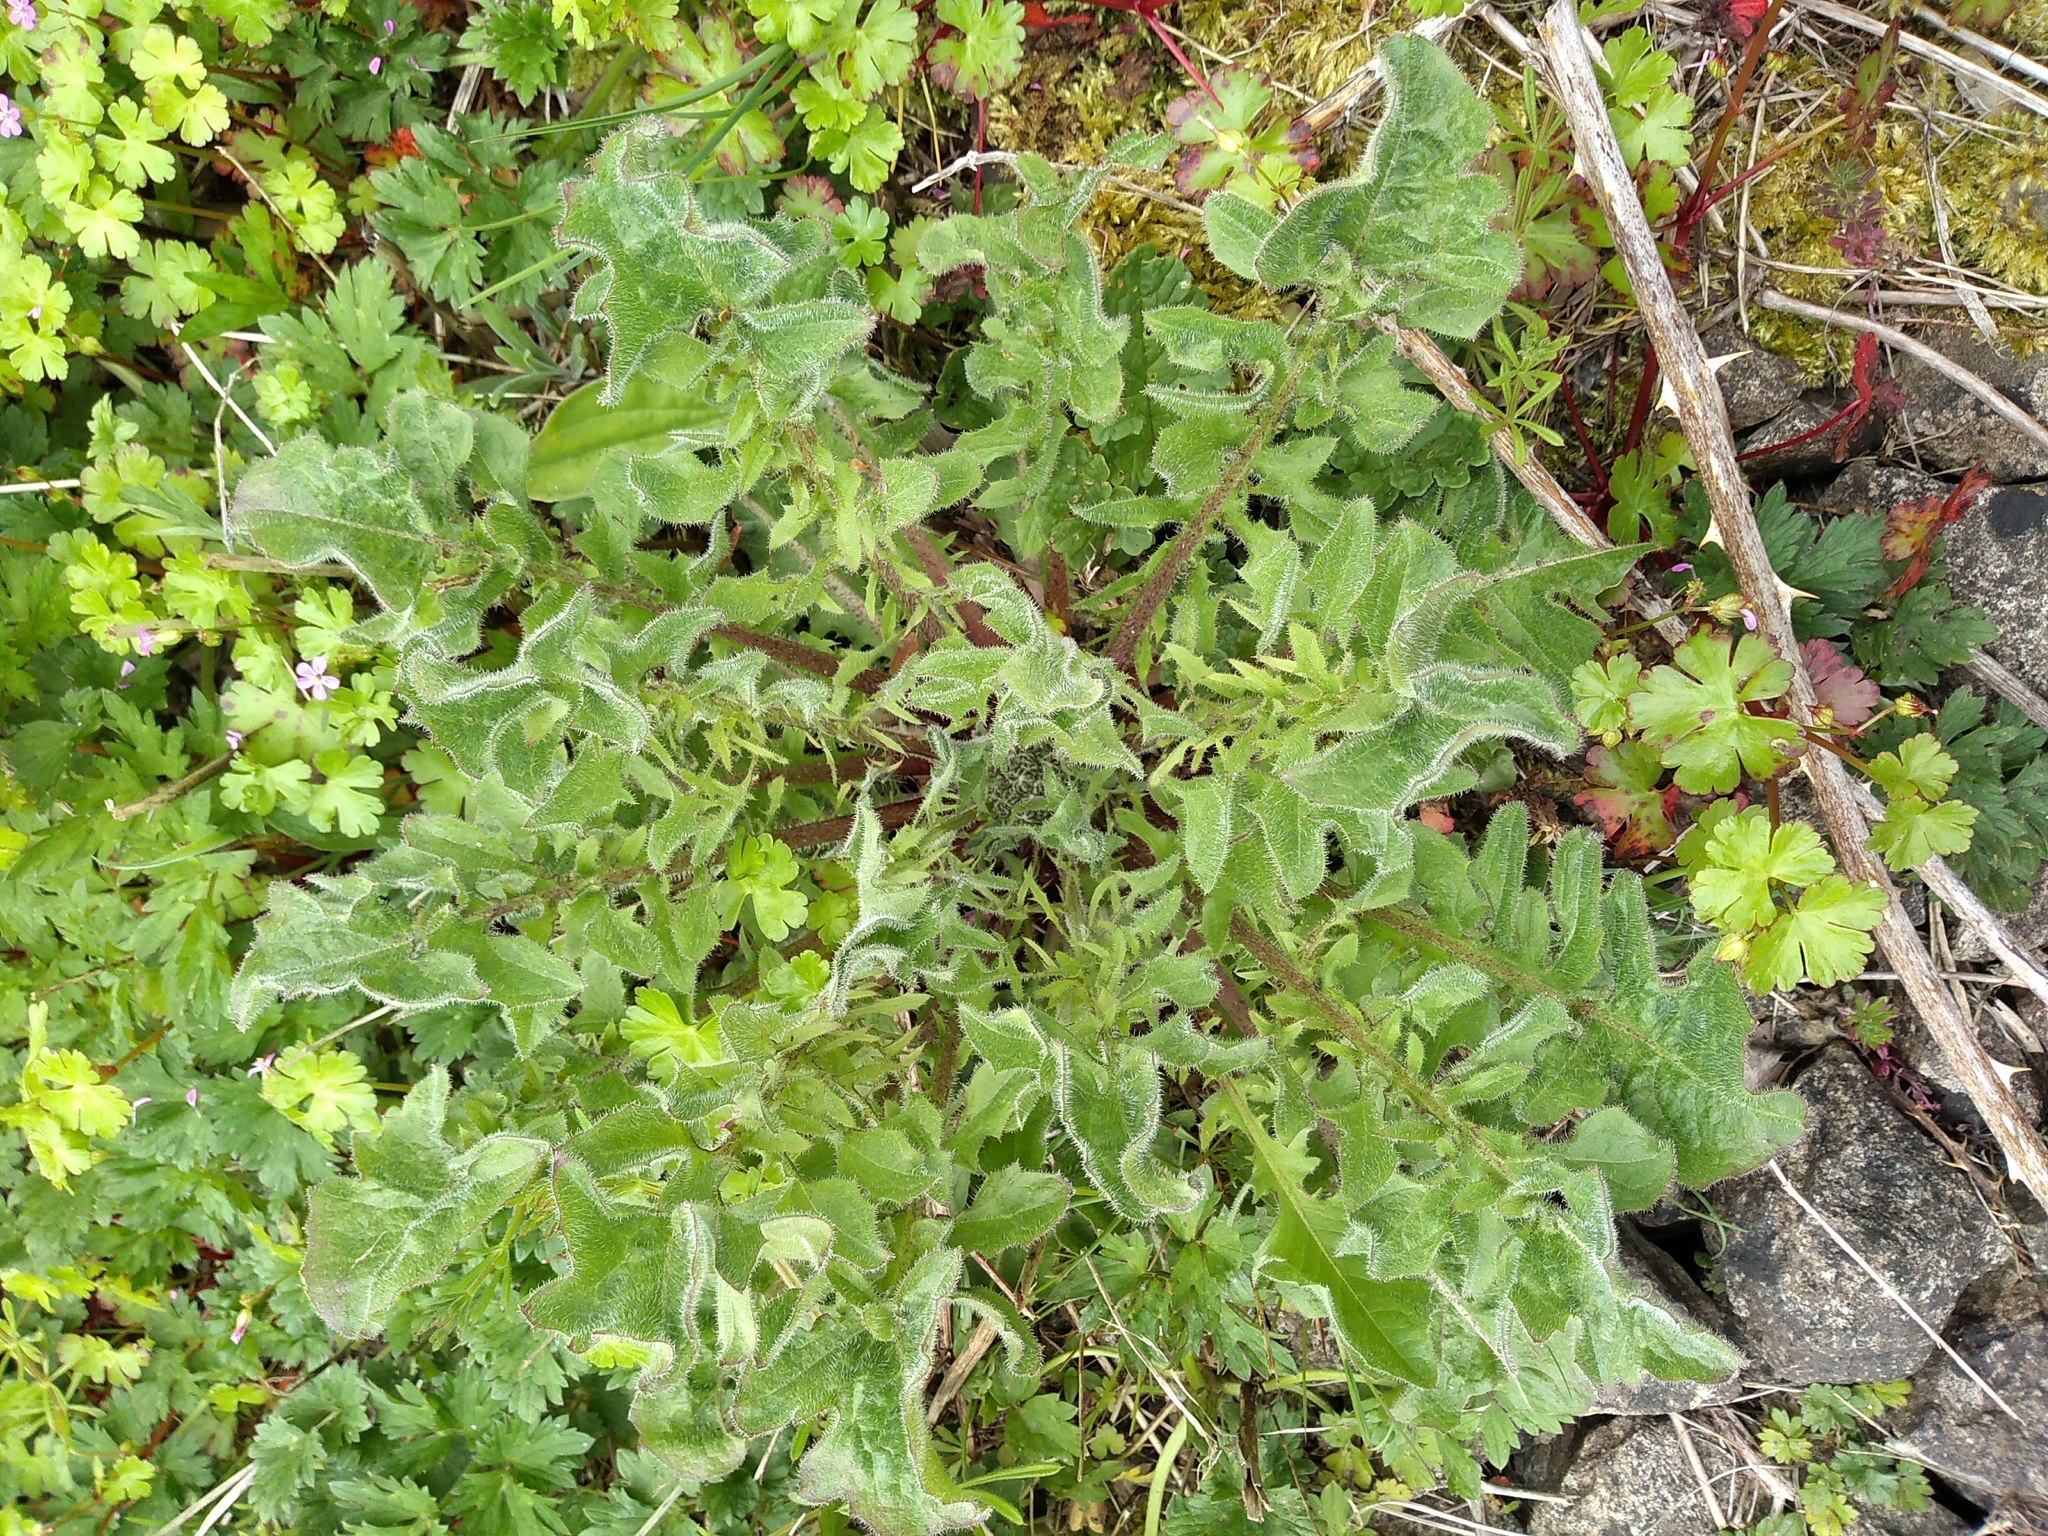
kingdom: Plantae
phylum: Tracheophyta
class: Magnoliopsida
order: Brassicales
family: Brassicaceae
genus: Sisymbrium
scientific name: Sisymbrium officinale
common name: Hedge mustard
